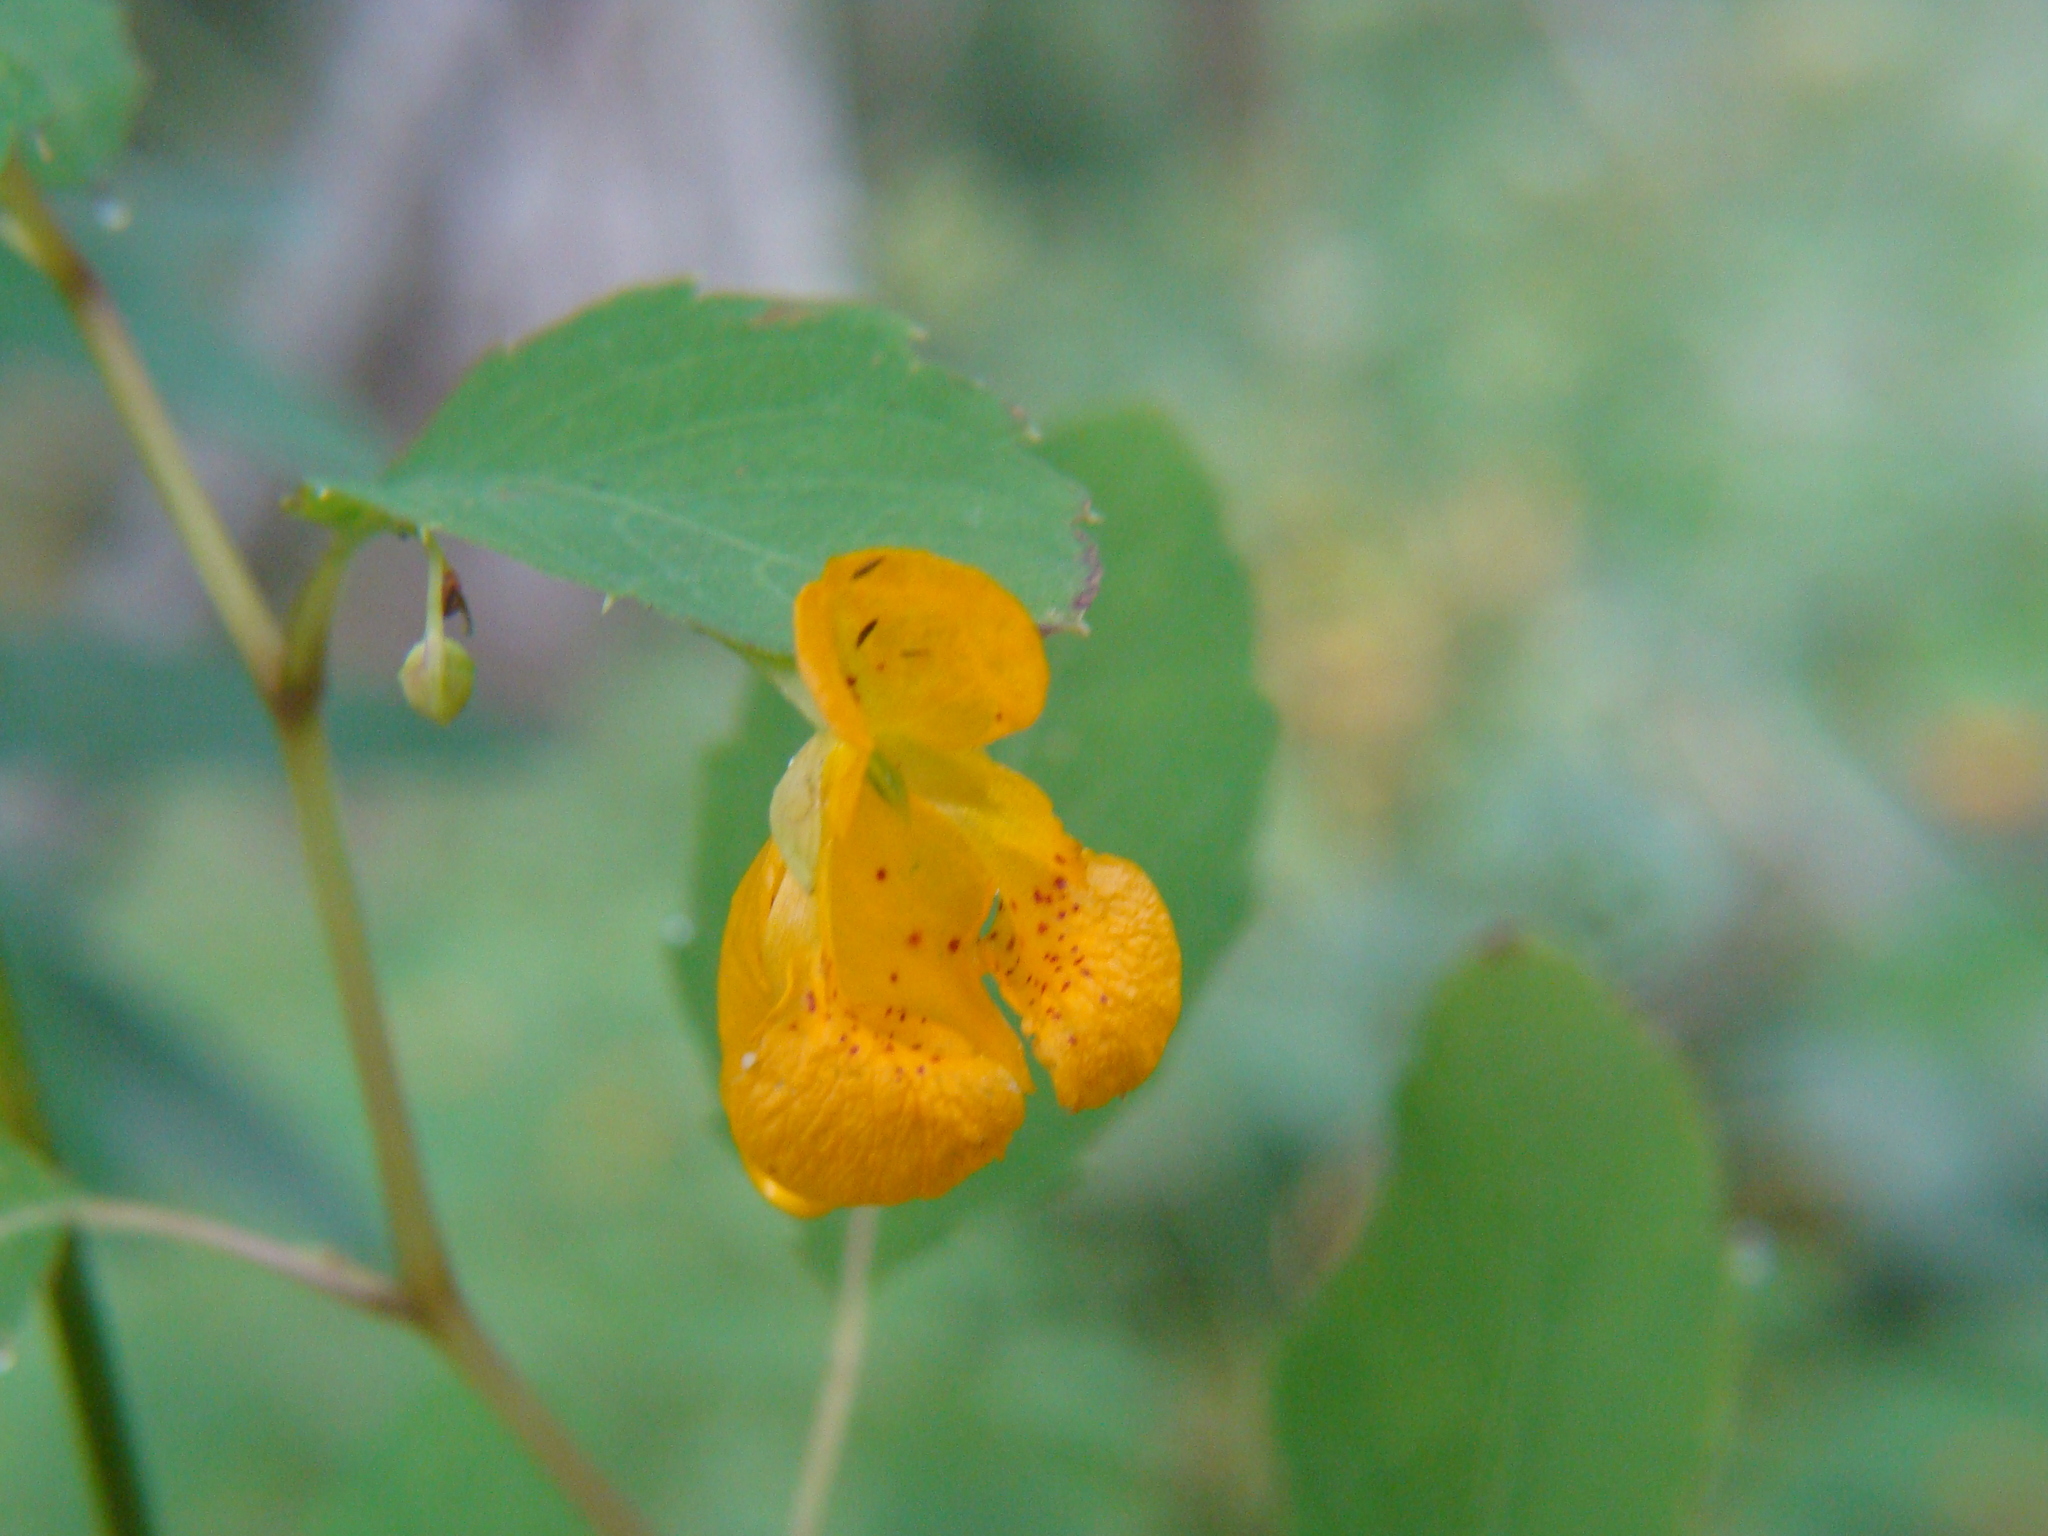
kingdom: Plantae
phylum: Tracheophyta
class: Magnoliopsida
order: Ericales
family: Balsaminaceae
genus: Impatiens
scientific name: Impatiens capensis
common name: Orange balsam
